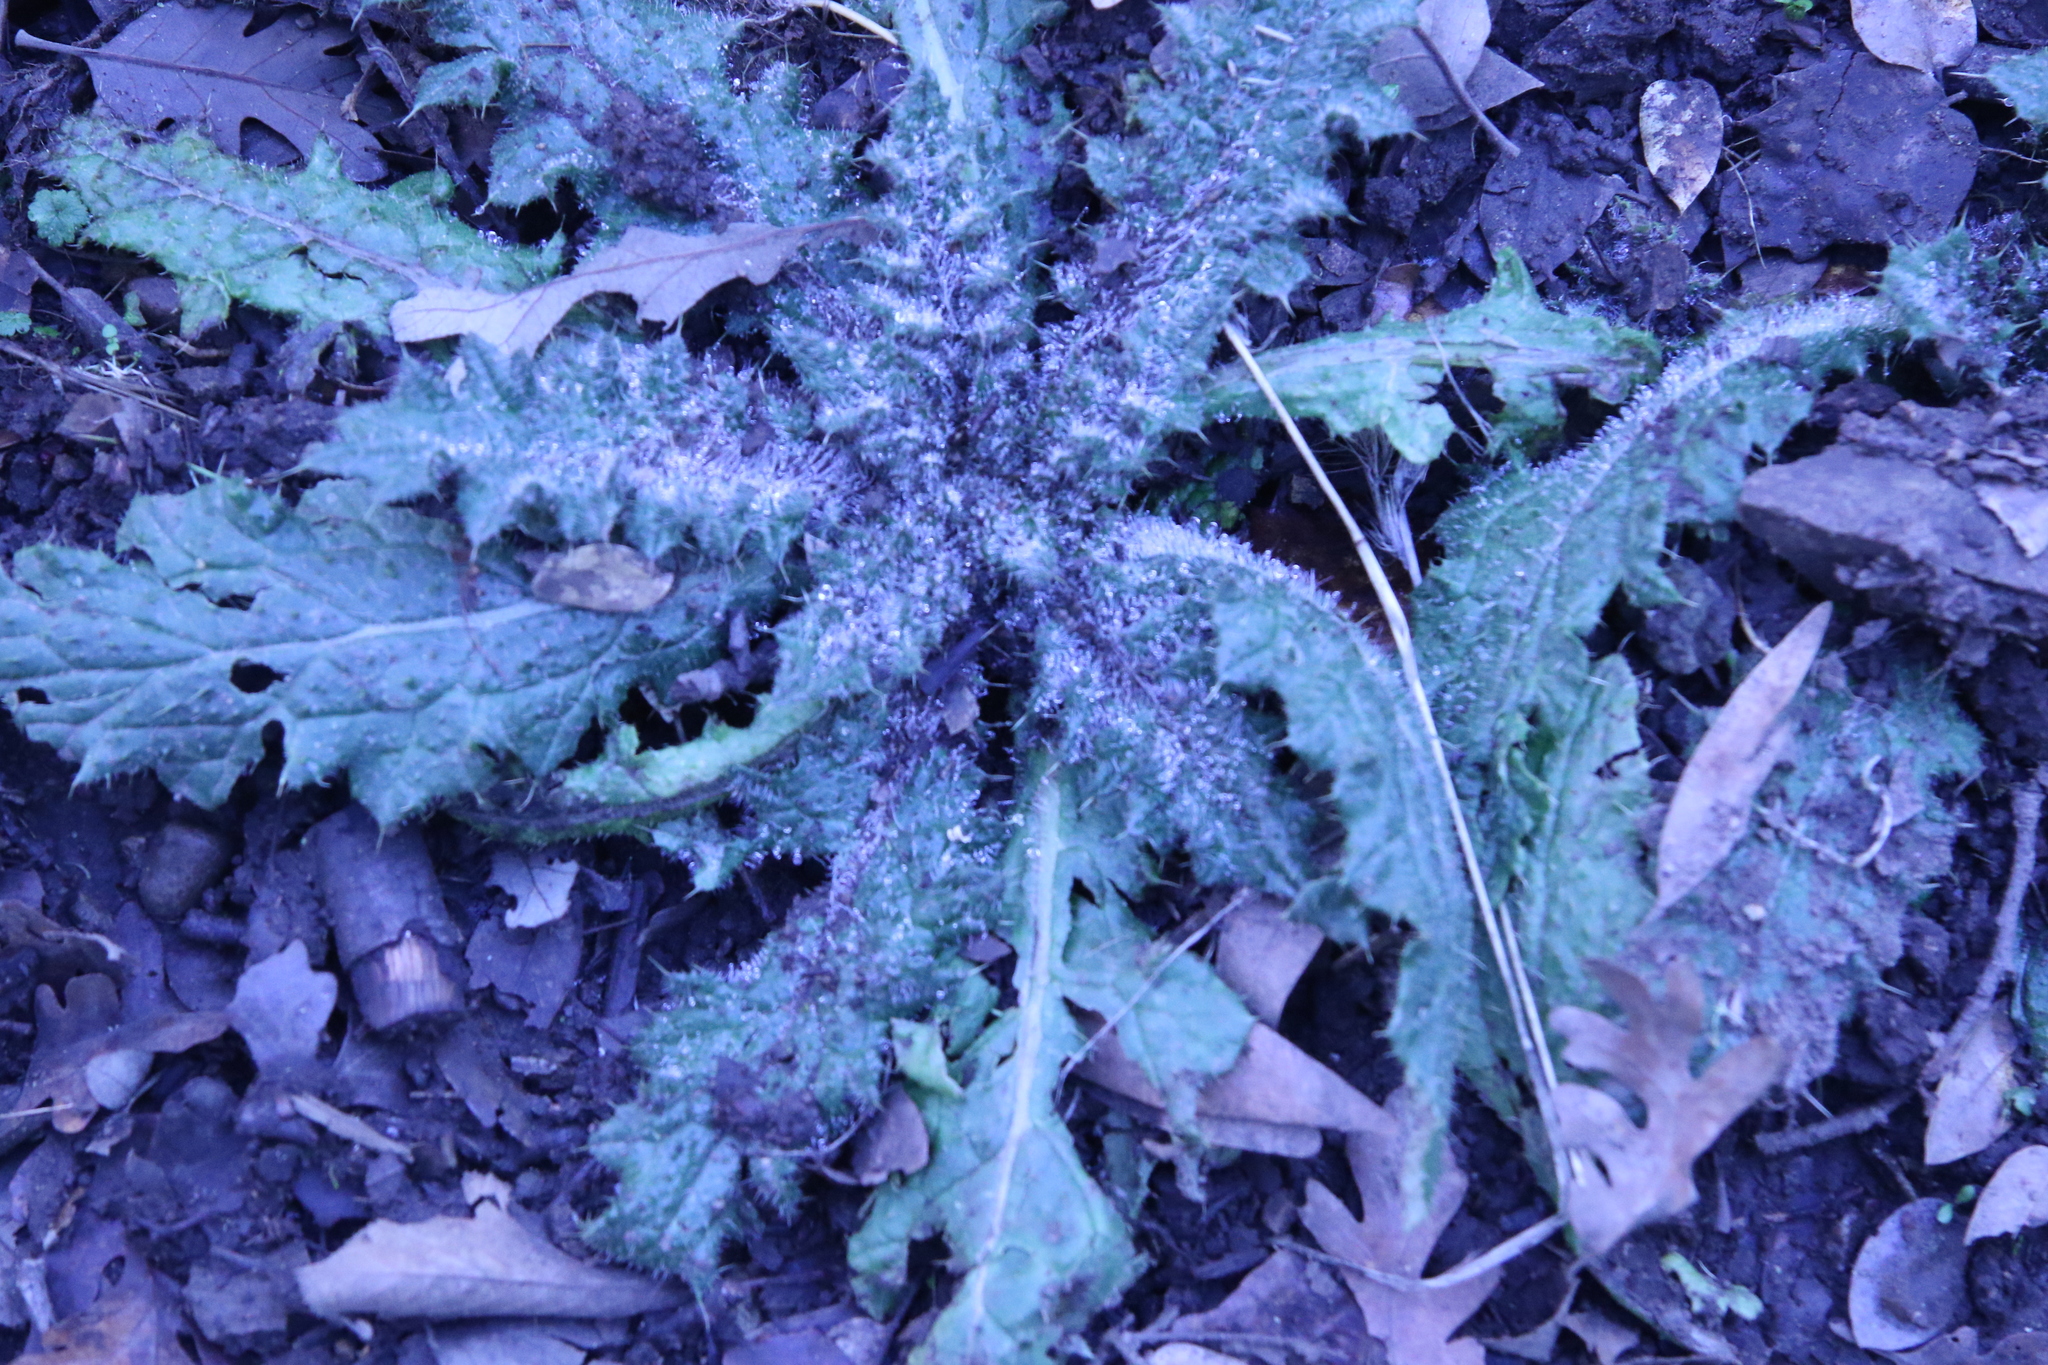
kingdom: Plantae
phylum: Tracheophyta
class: Magnoliopsida
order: Asterales
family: Asteraceae
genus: Cirsium
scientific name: Cirsium vulgare
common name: Bull thistle
